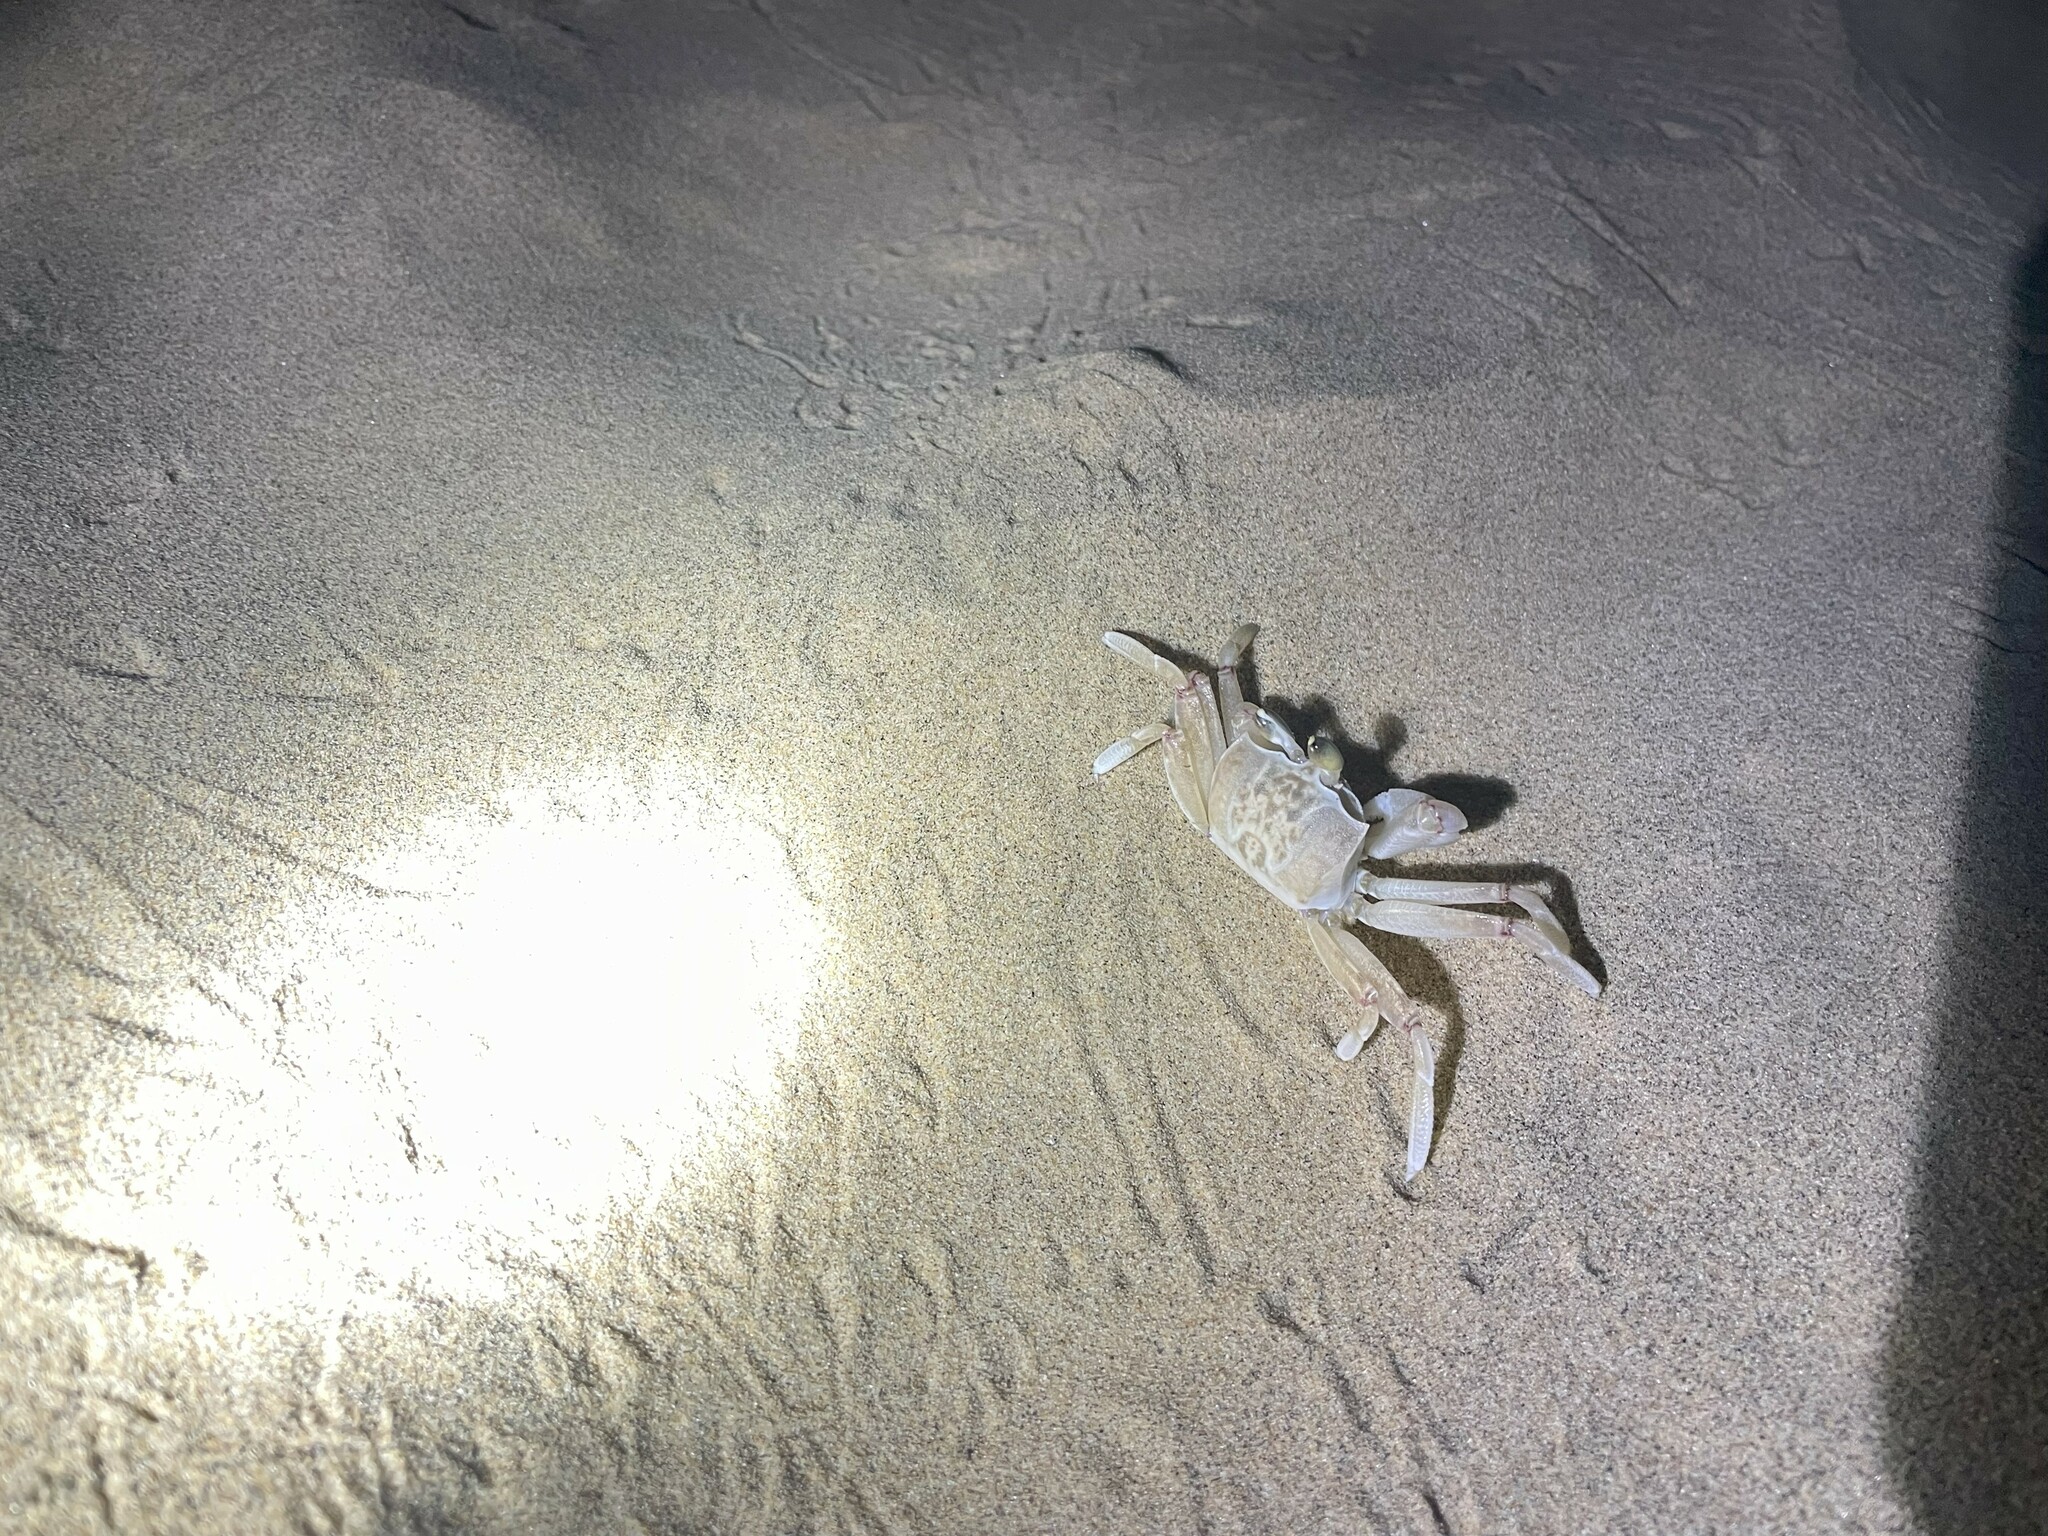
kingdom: Animalia
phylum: Arthropoda
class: Malacostraca
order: Decapoda
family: Ocypodidae
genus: Ocypode
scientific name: Ocypode ryderi
